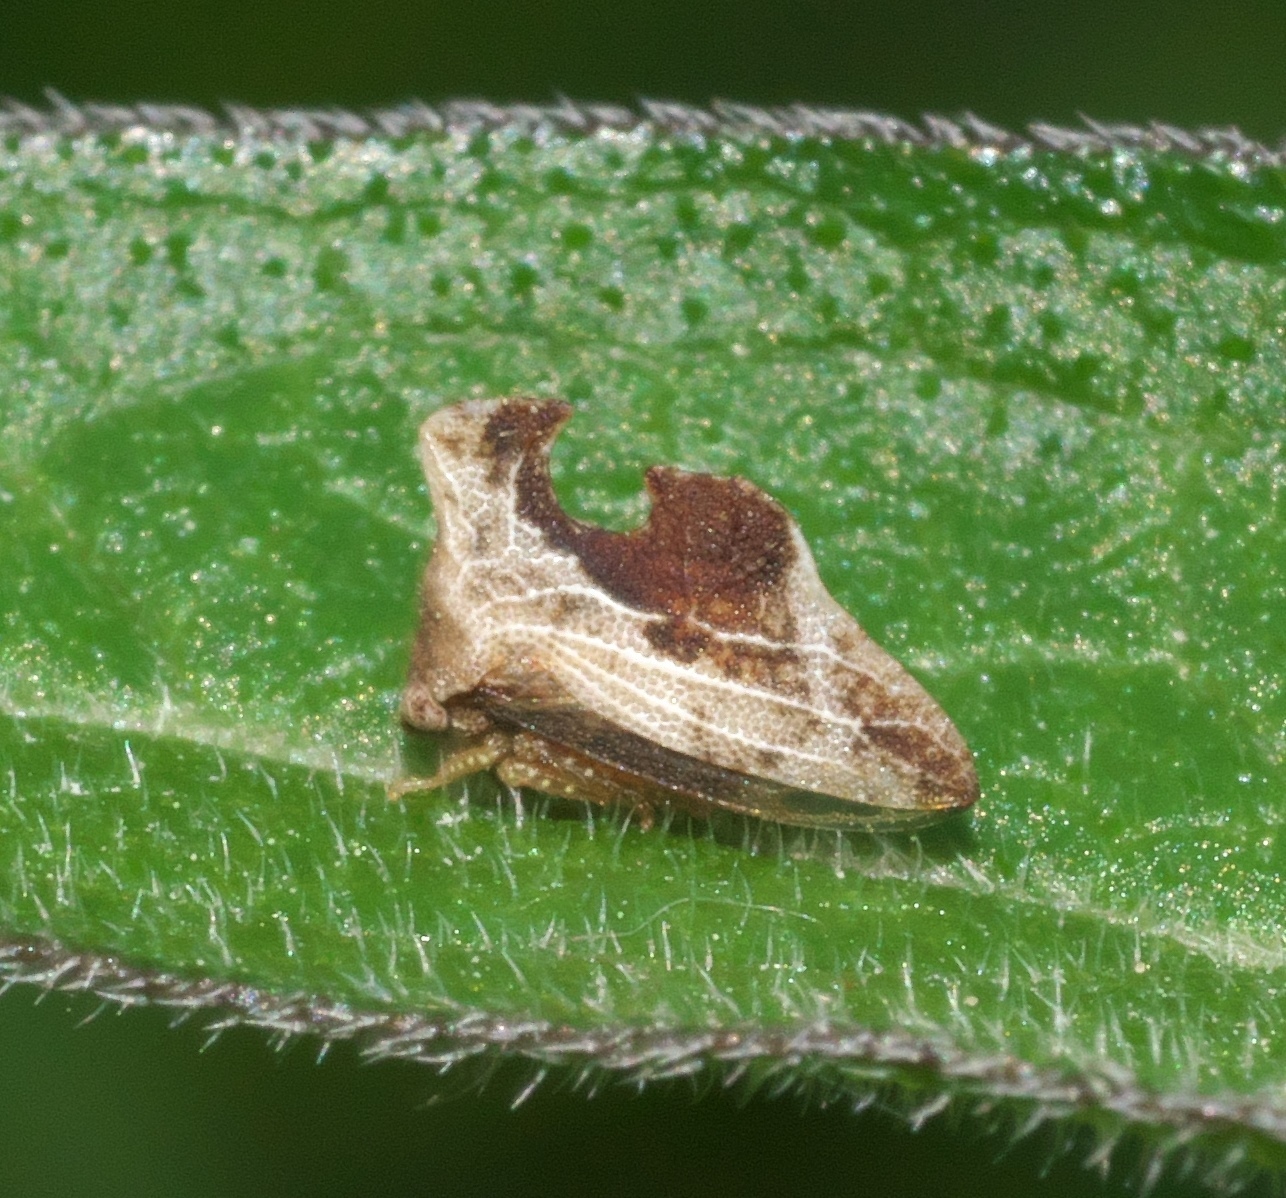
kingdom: Animalia
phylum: Arthropoda
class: Insecta
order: Hemiptera
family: Membracidae
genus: Entylia
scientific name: Entylia carinata
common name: Keeled treehopper
